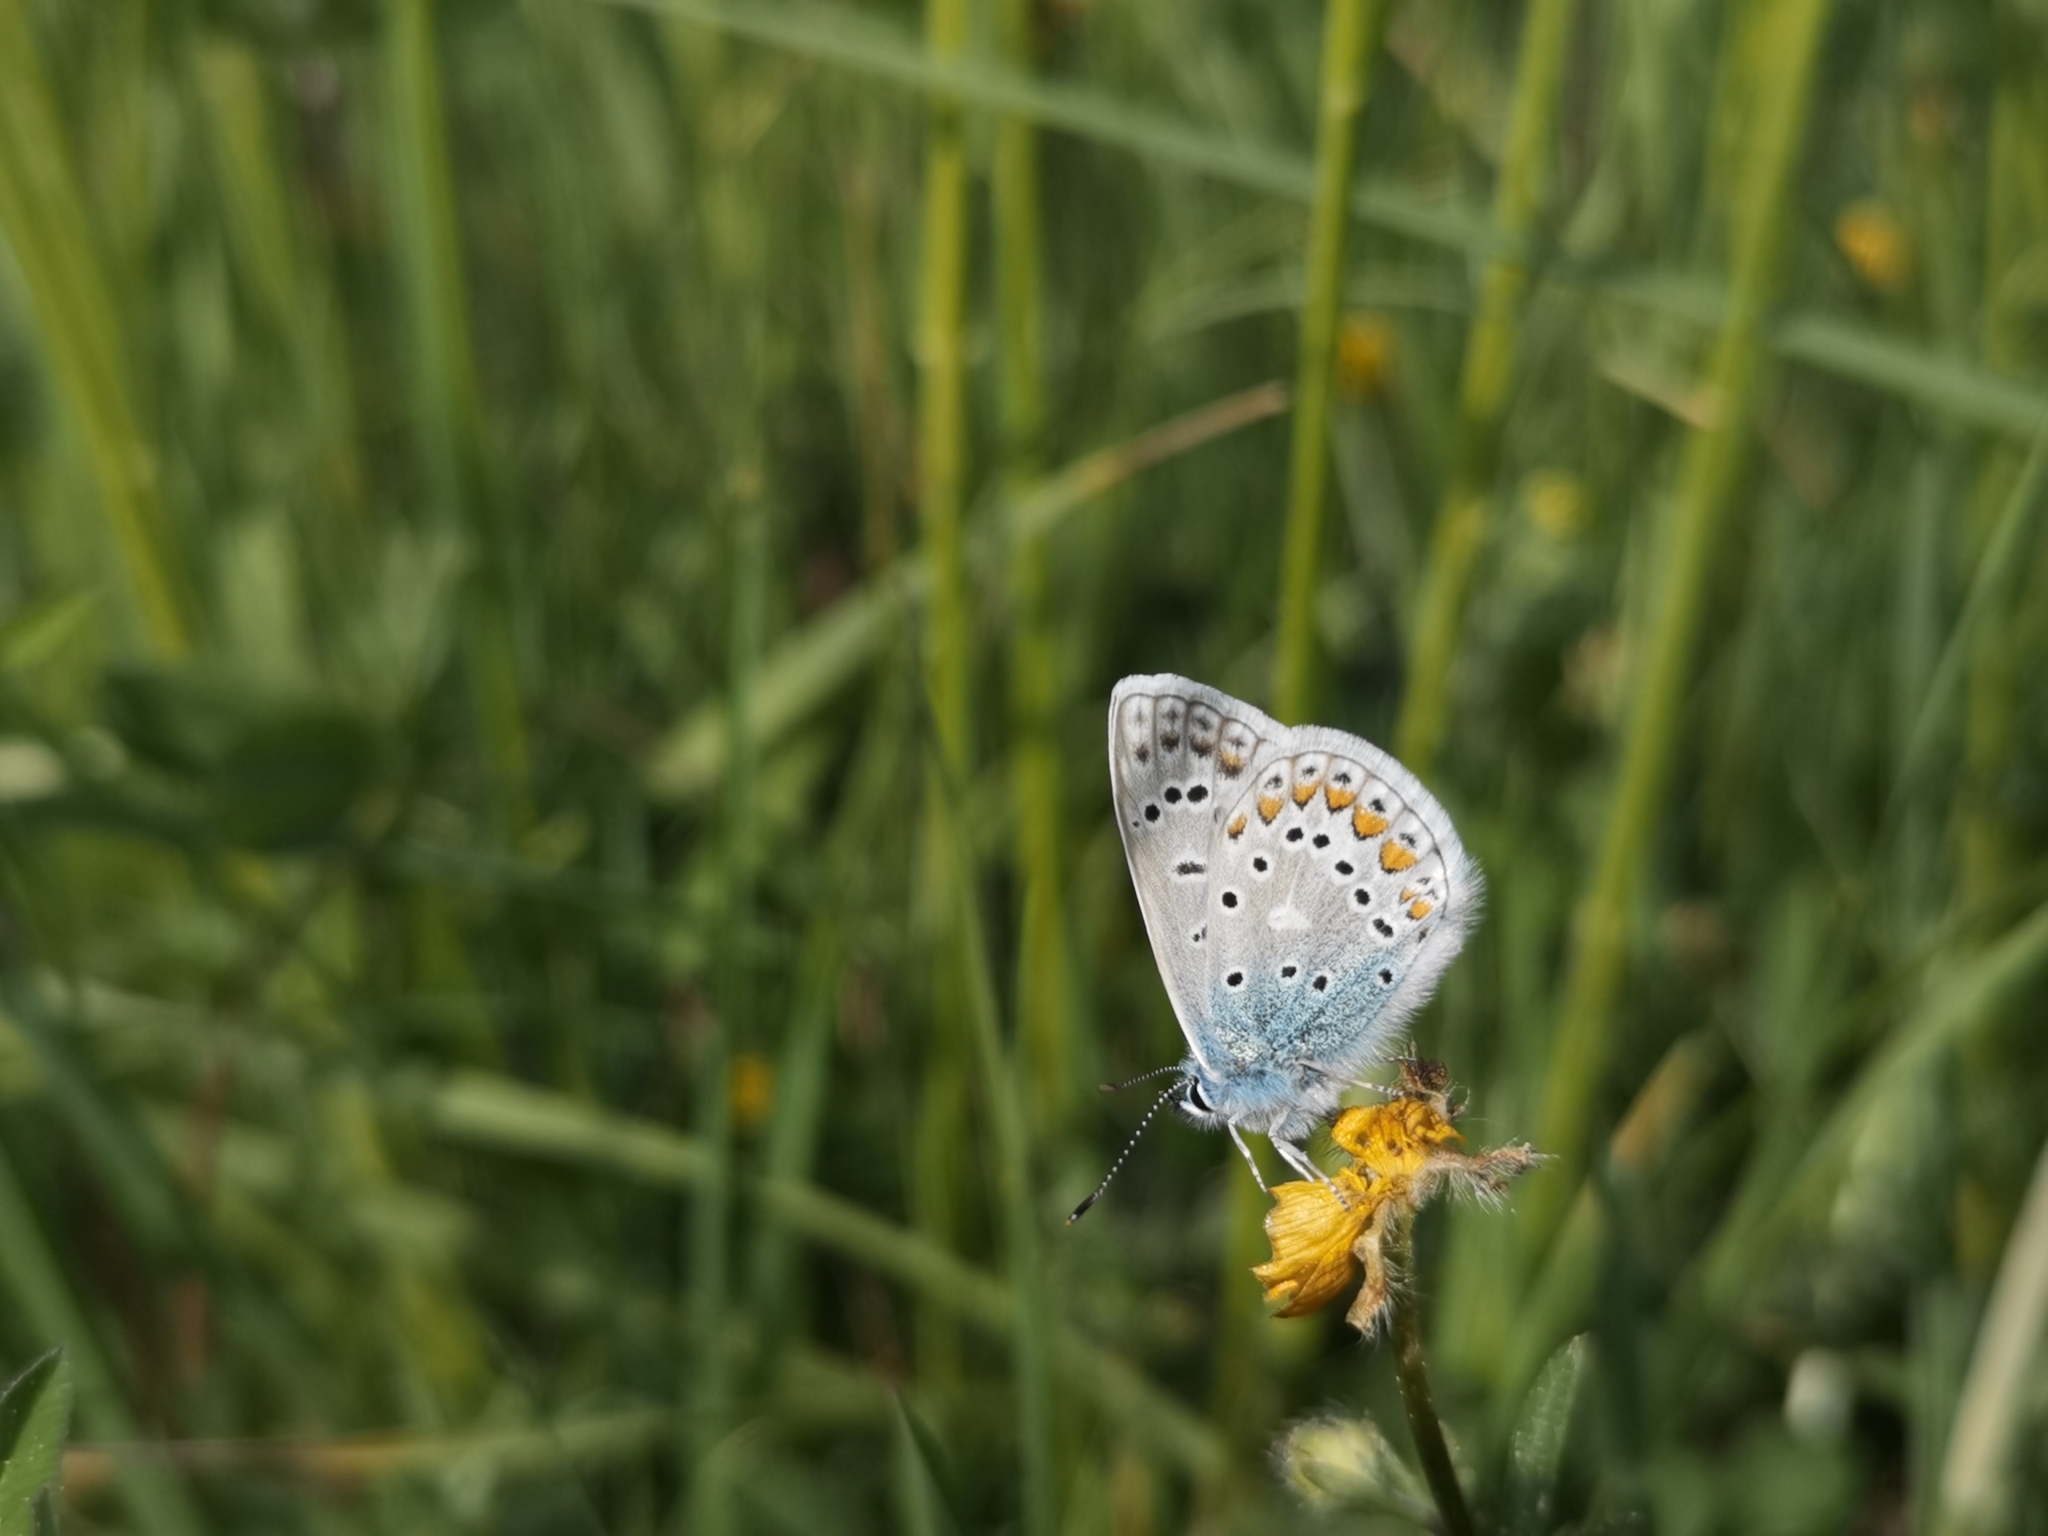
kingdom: Animalia
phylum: Arthropoda
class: Insecta
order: Lepidoptera
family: Lycaenidae
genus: Polyommatus
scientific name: Polyommatus icarus
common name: Common blue
